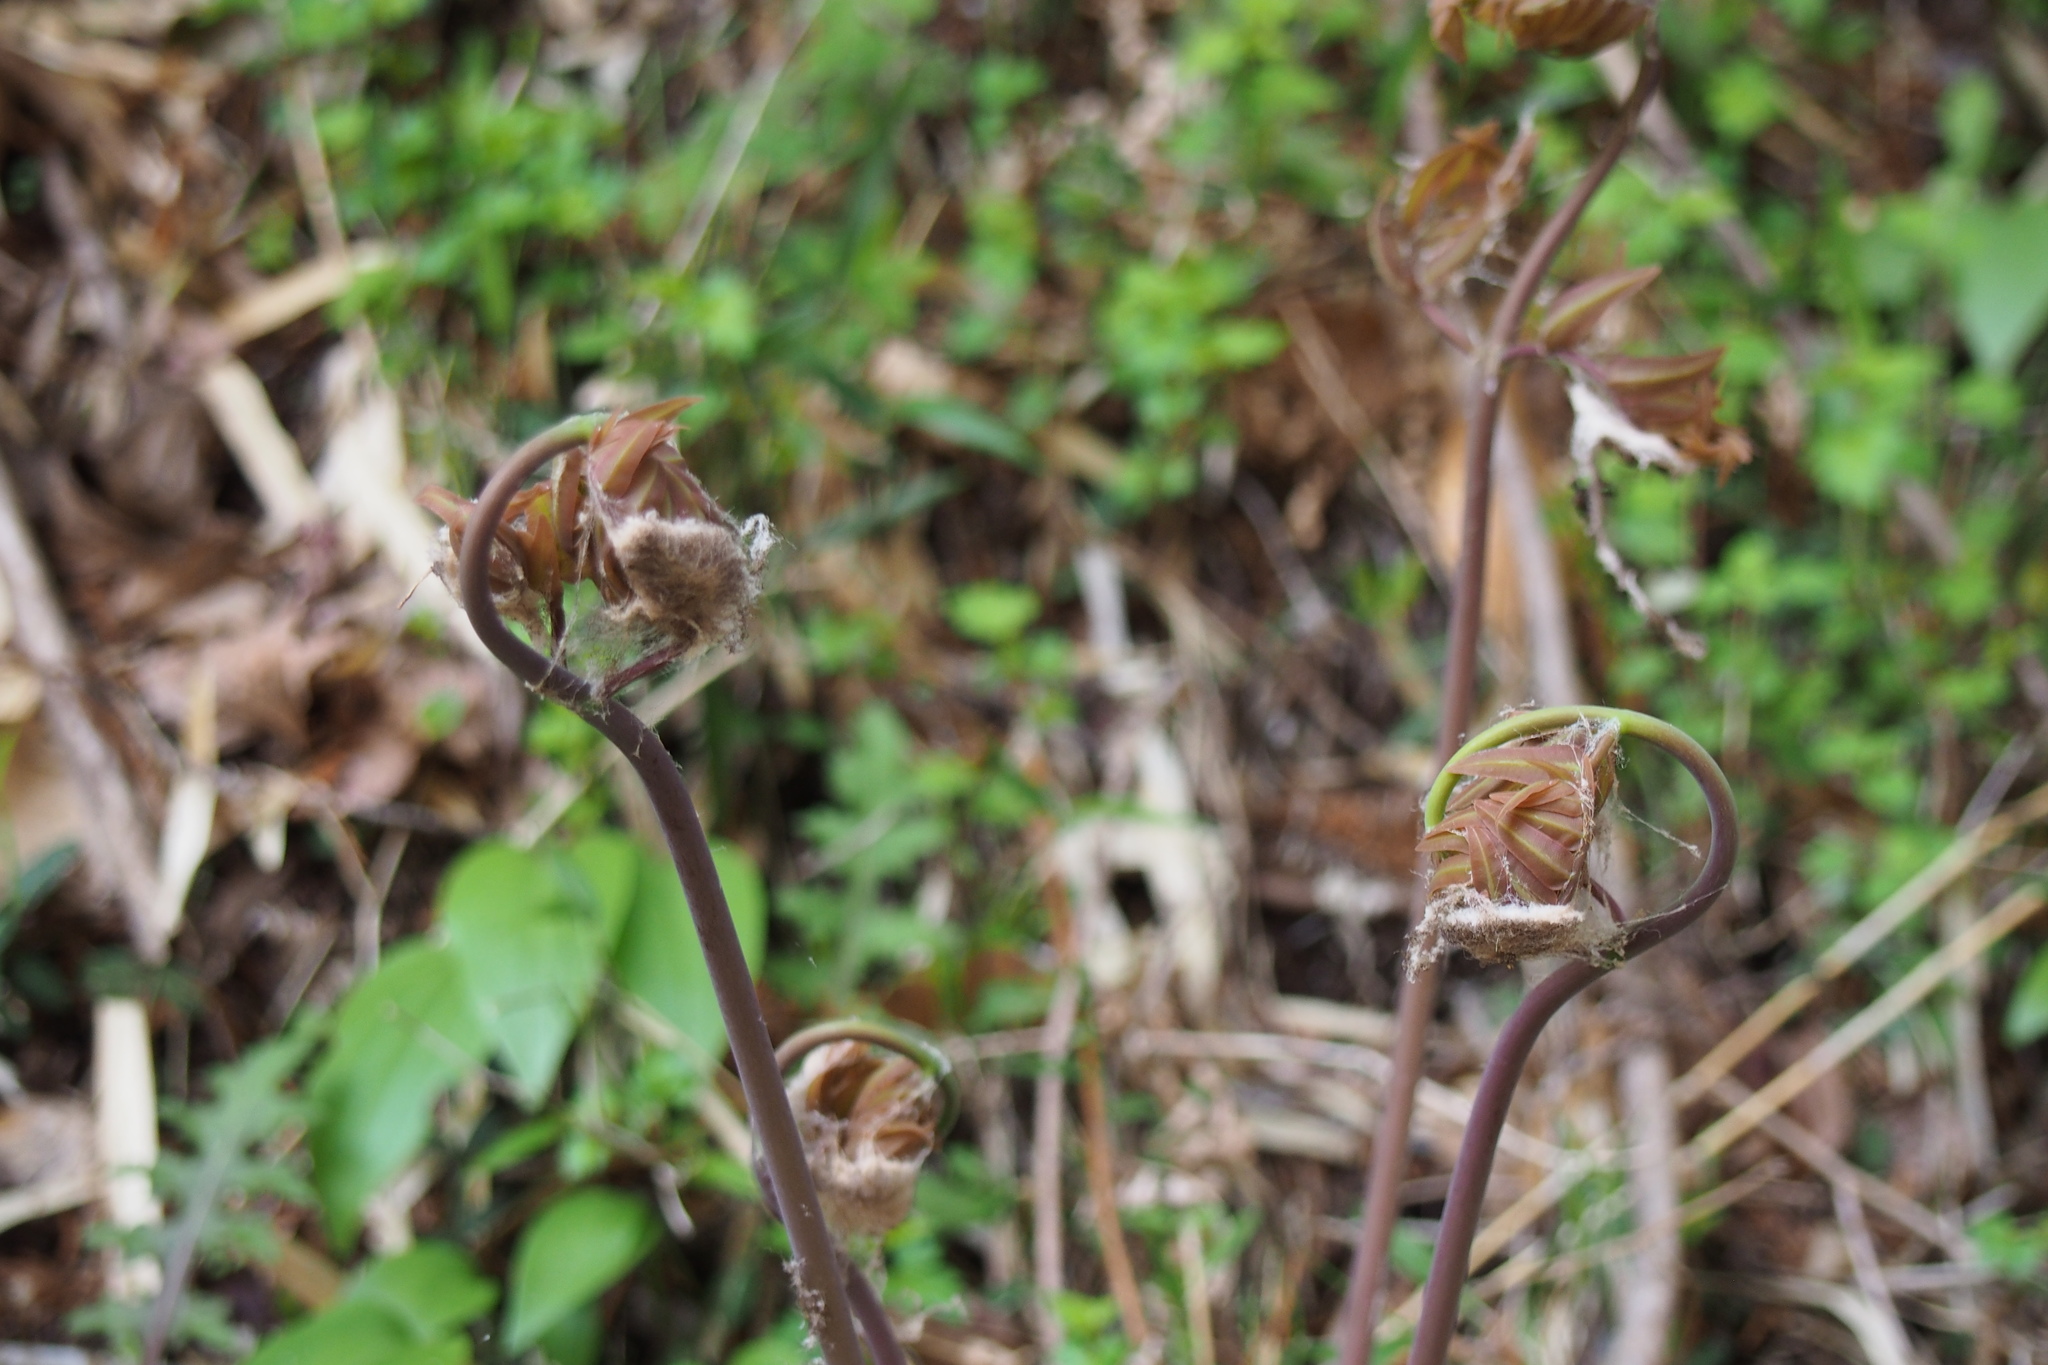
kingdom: Plantae
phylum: Tracheophyta
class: Polypodiopsida
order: Osmundales
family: Osmundaceae
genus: Osmunda
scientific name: Osmunda japonica
